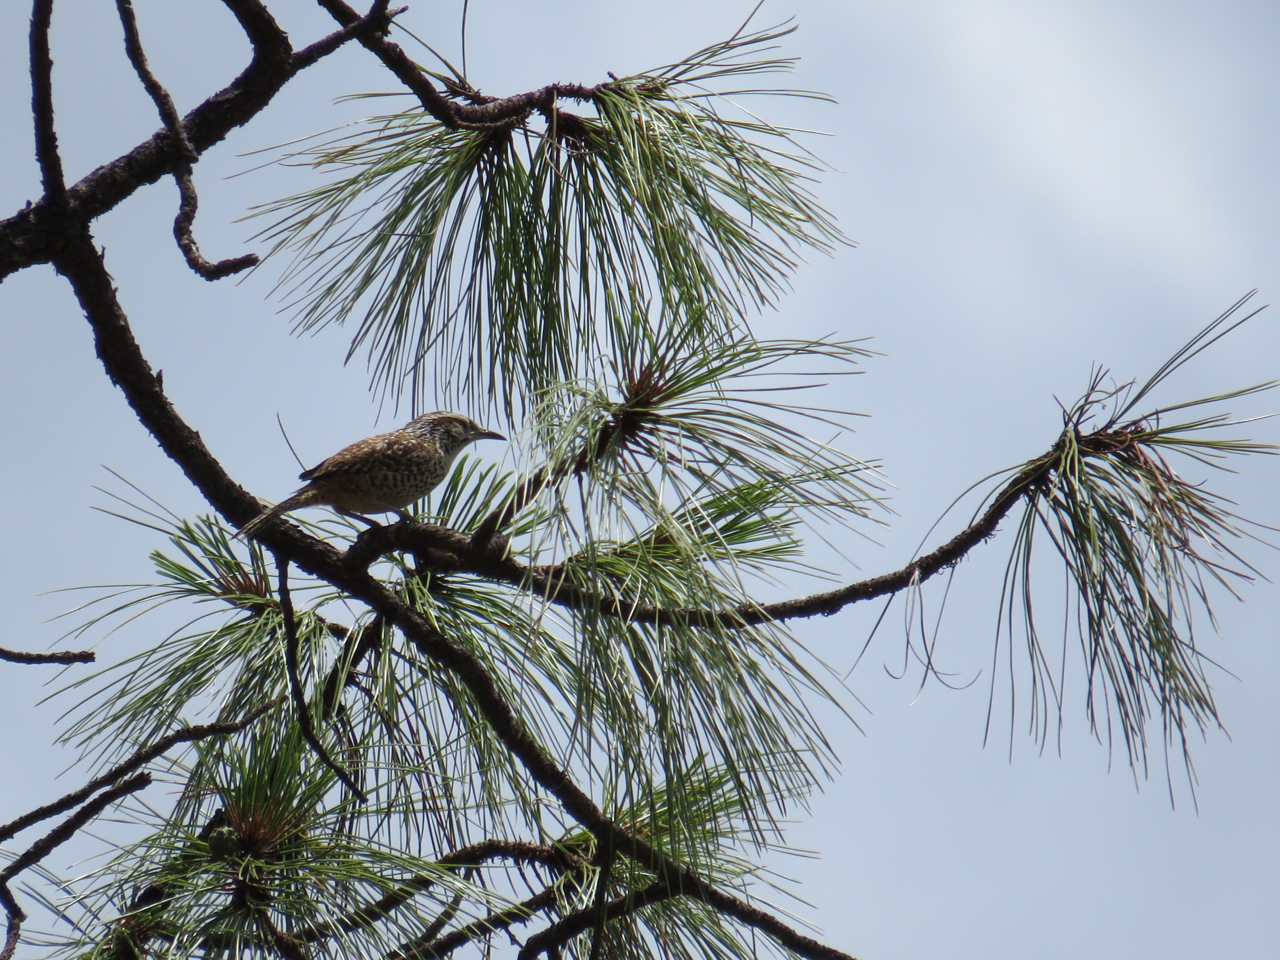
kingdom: Animalia
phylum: Chordata
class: Aves
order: Passeriformes
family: Troglodytidae
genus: Campylorhynchus
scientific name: Campylorhynchus gularis
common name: Spotted wren
